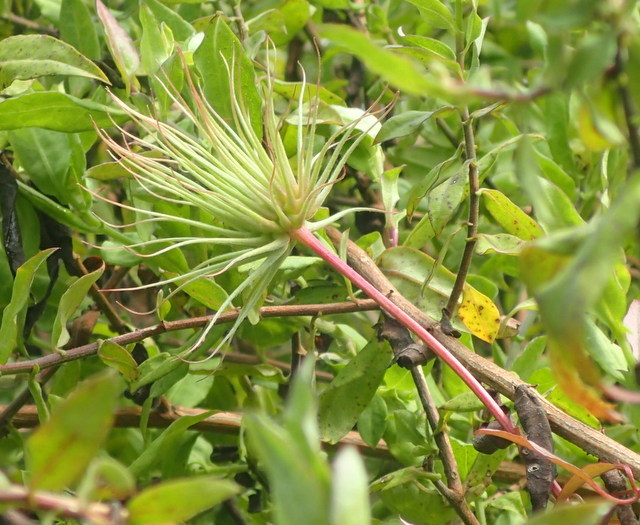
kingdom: Plantae
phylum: Tracheophyta
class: Magnoliopsida
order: Ranunculales
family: Ranunculaceae
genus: Clematis
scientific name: Clematis crispa
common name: Curly clematis
